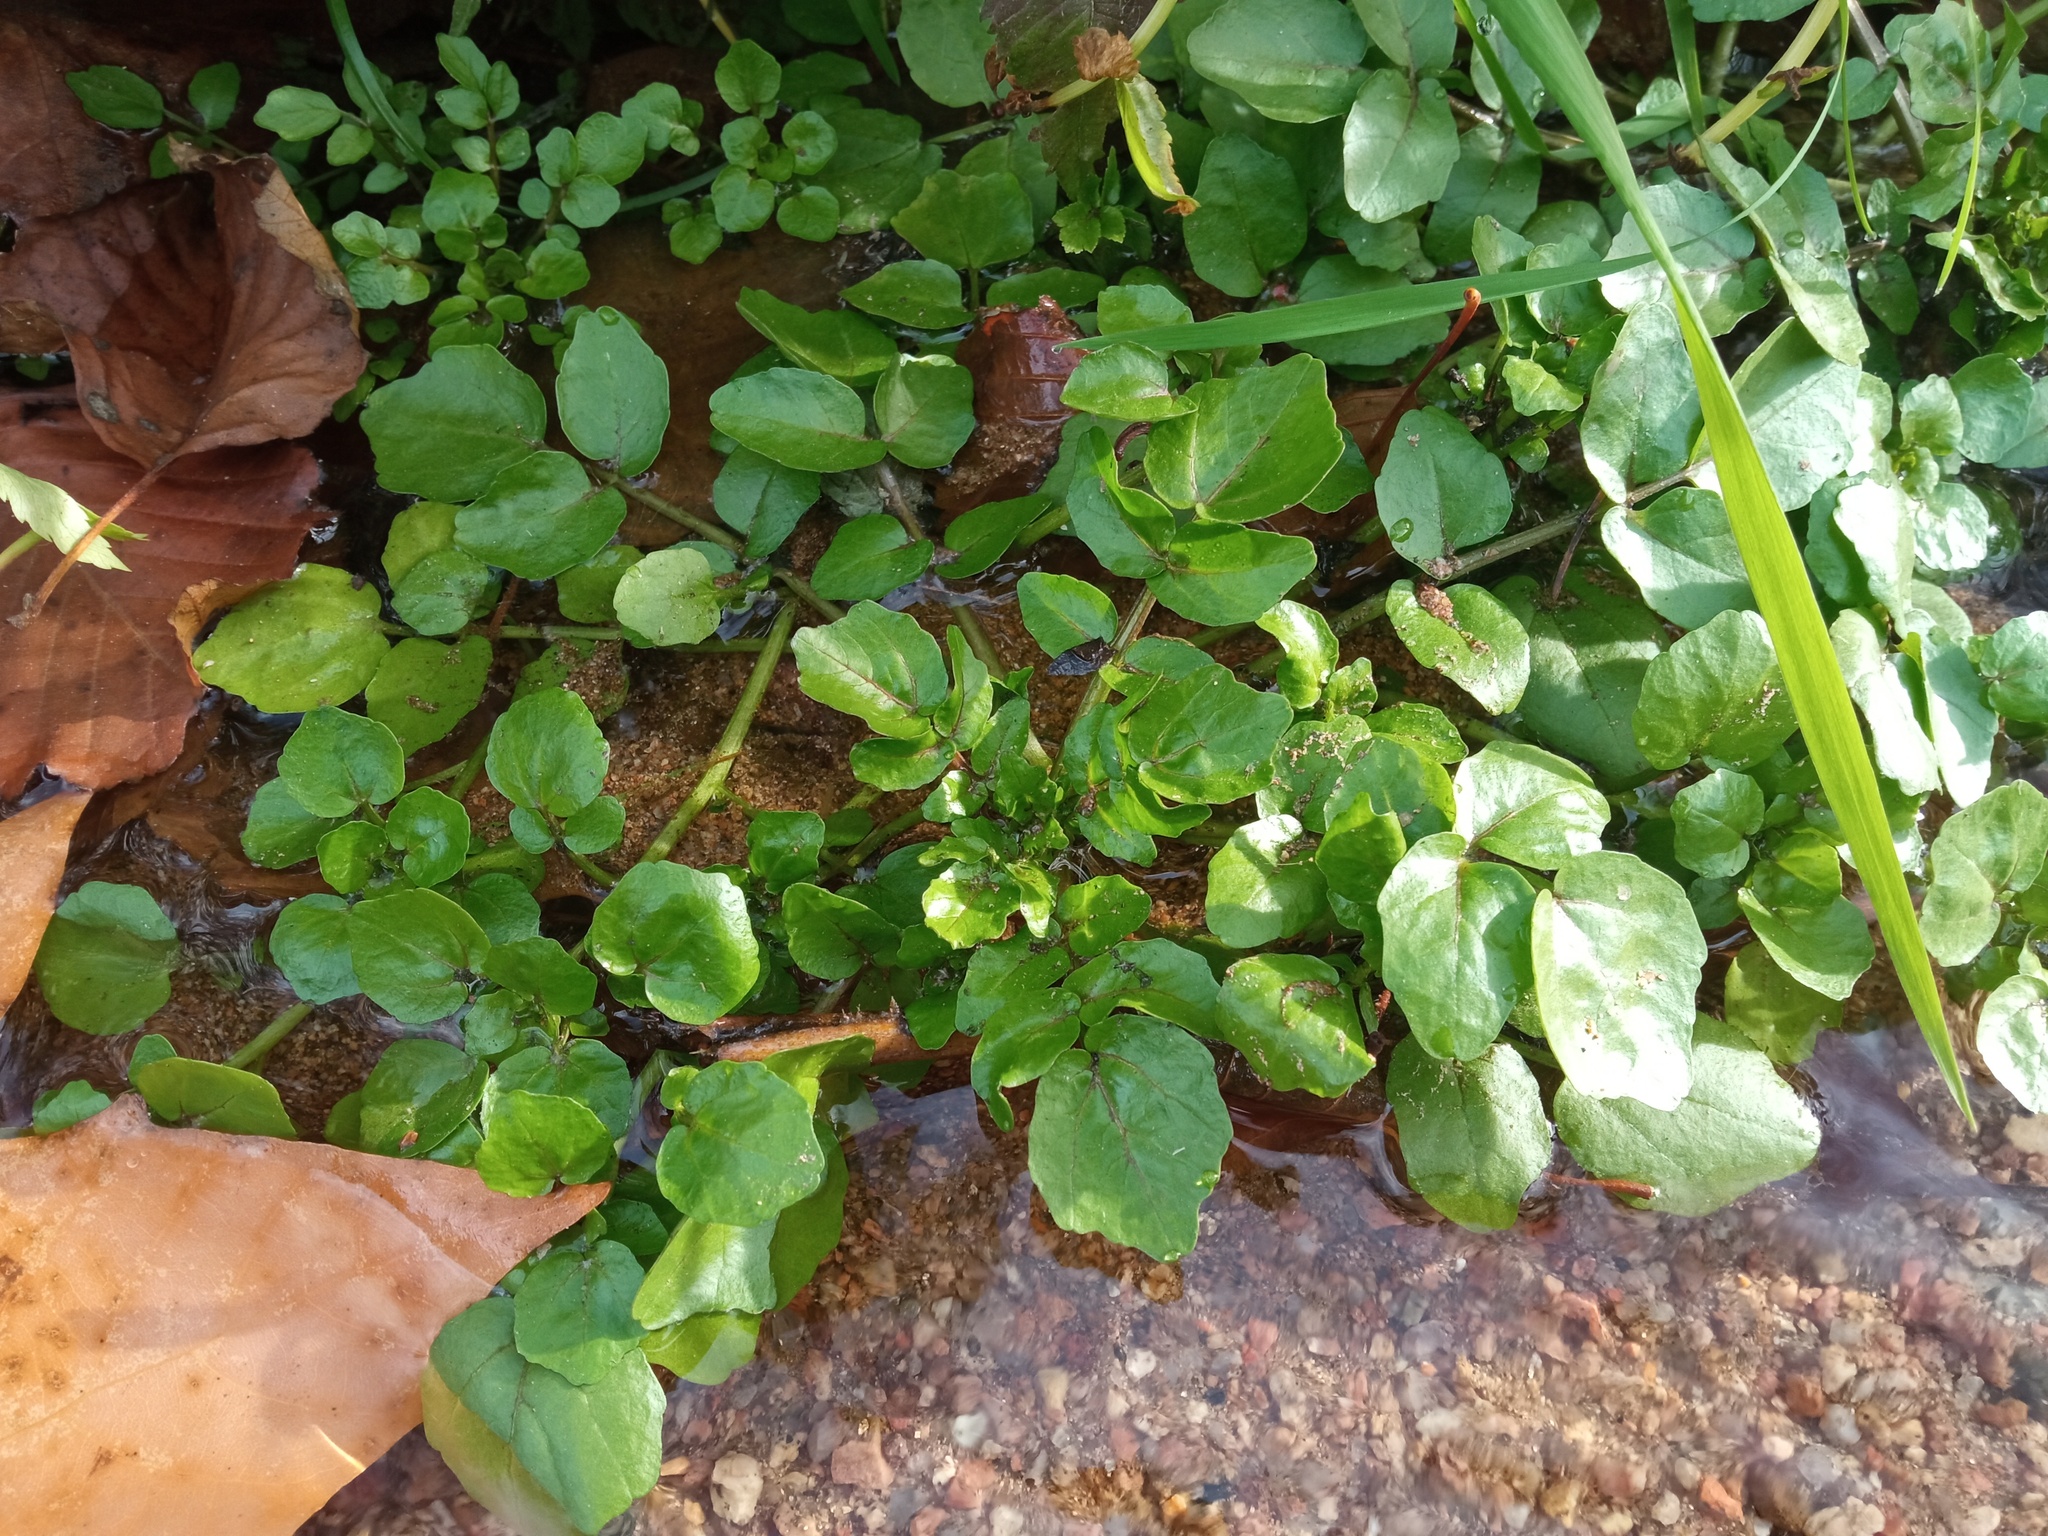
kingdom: Plantae
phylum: Tracheophyta
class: Magnoliopsida
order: Brassicales
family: Brassicaceae
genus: Nasturtium
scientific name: Nasturtium officinale
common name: Watercress
